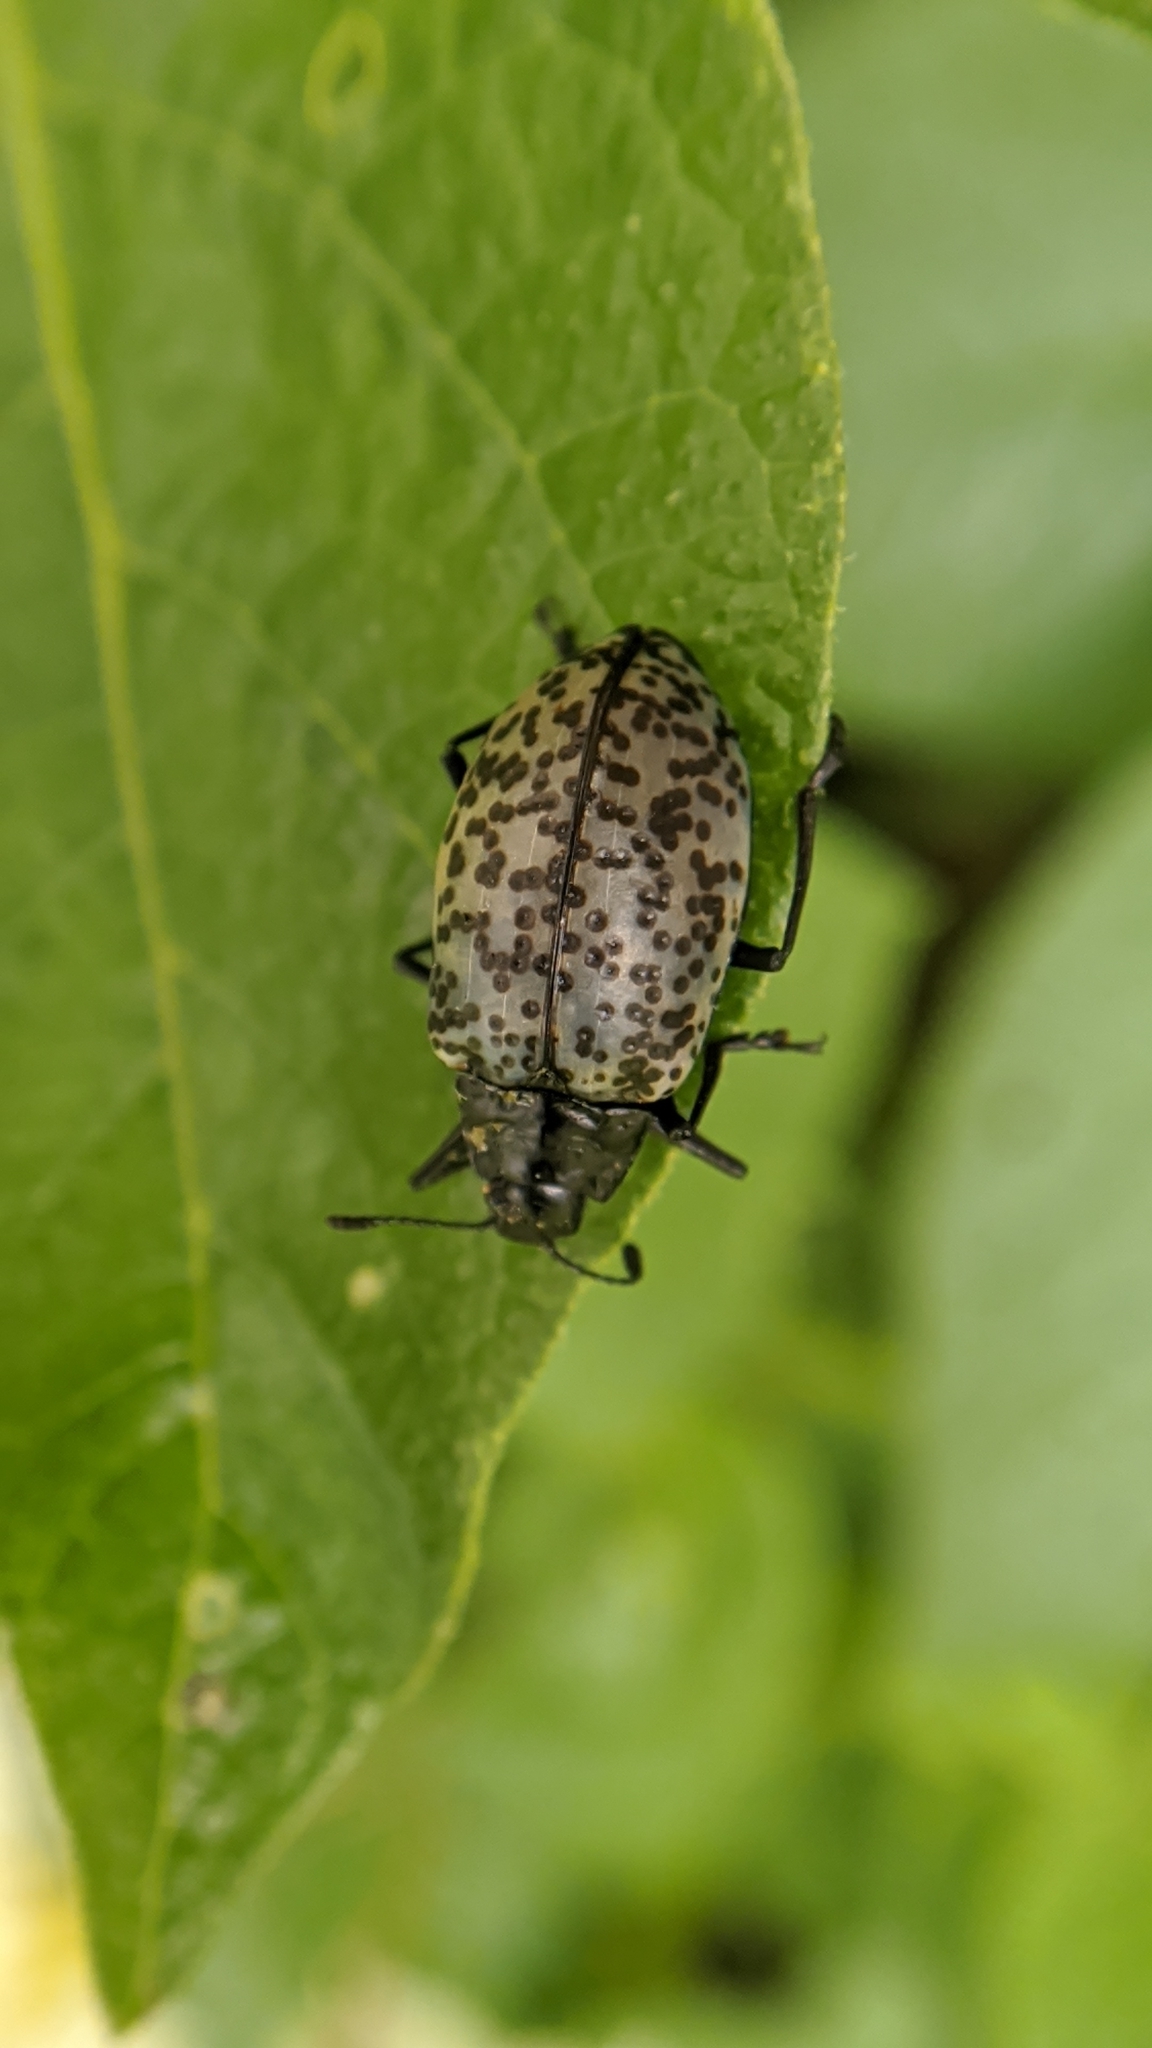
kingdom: Animalia
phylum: Arthropoda
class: Insecta
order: Coleoptera
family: Erotylidae
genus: Gibbifer
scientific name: Gibbifer californicus
